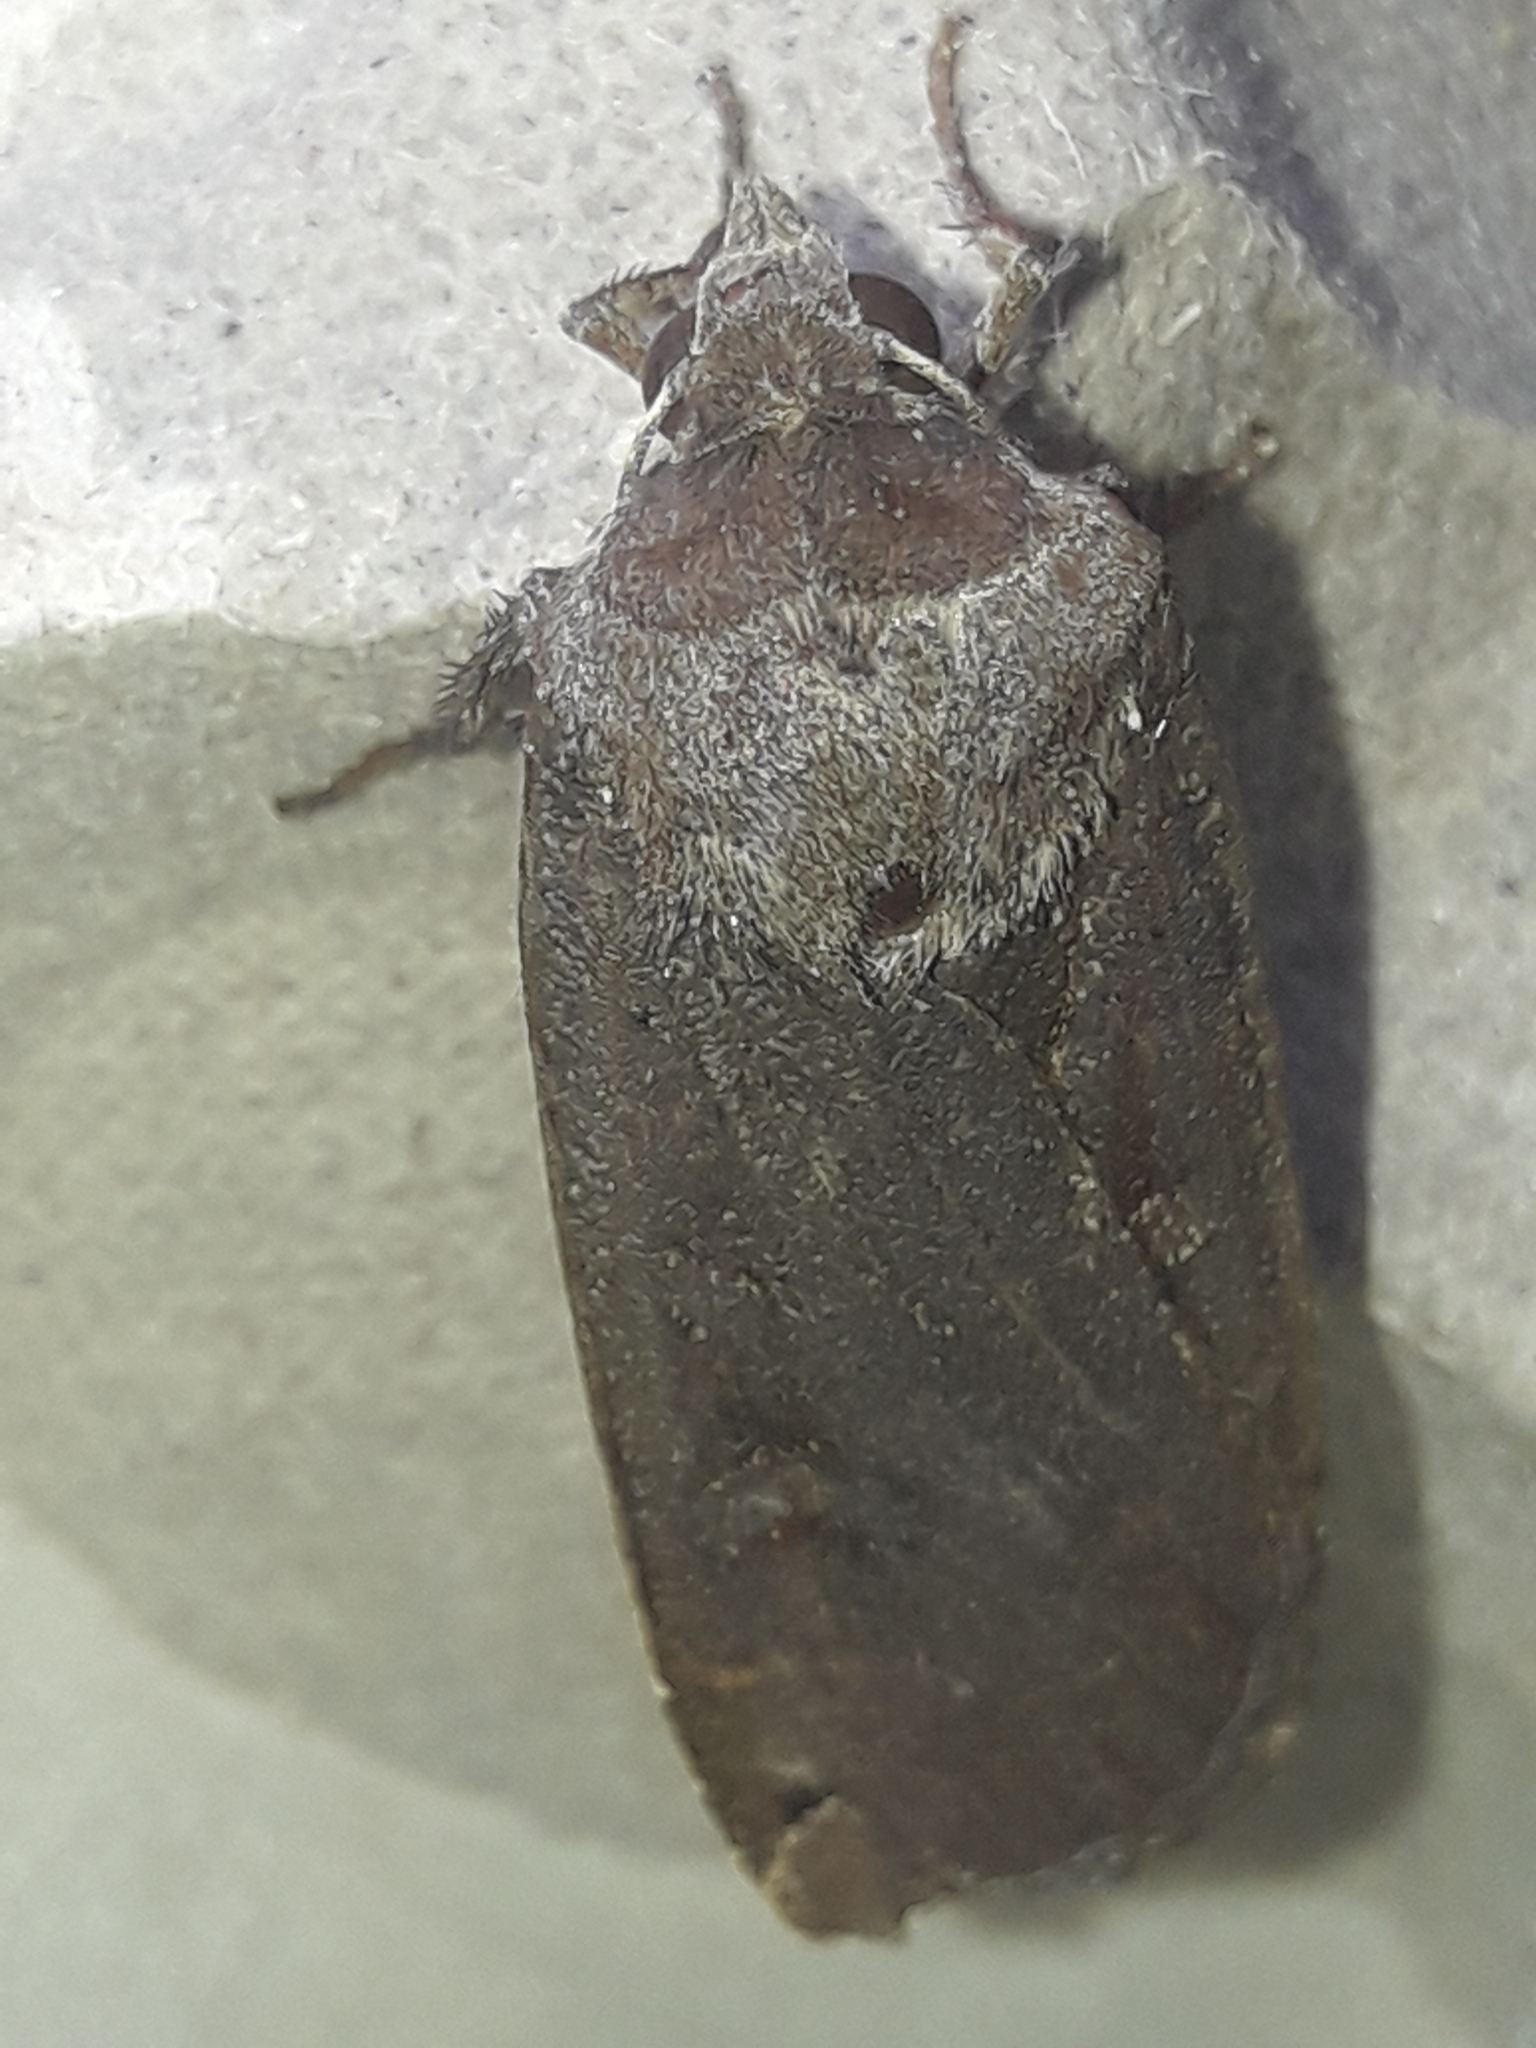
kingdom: Animalia
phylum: Arthropoda
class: Insecta
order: Lepidoptera
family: Noctuidae
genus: Noctua
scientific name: Noctua pronuba
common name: Large yellow underwing
